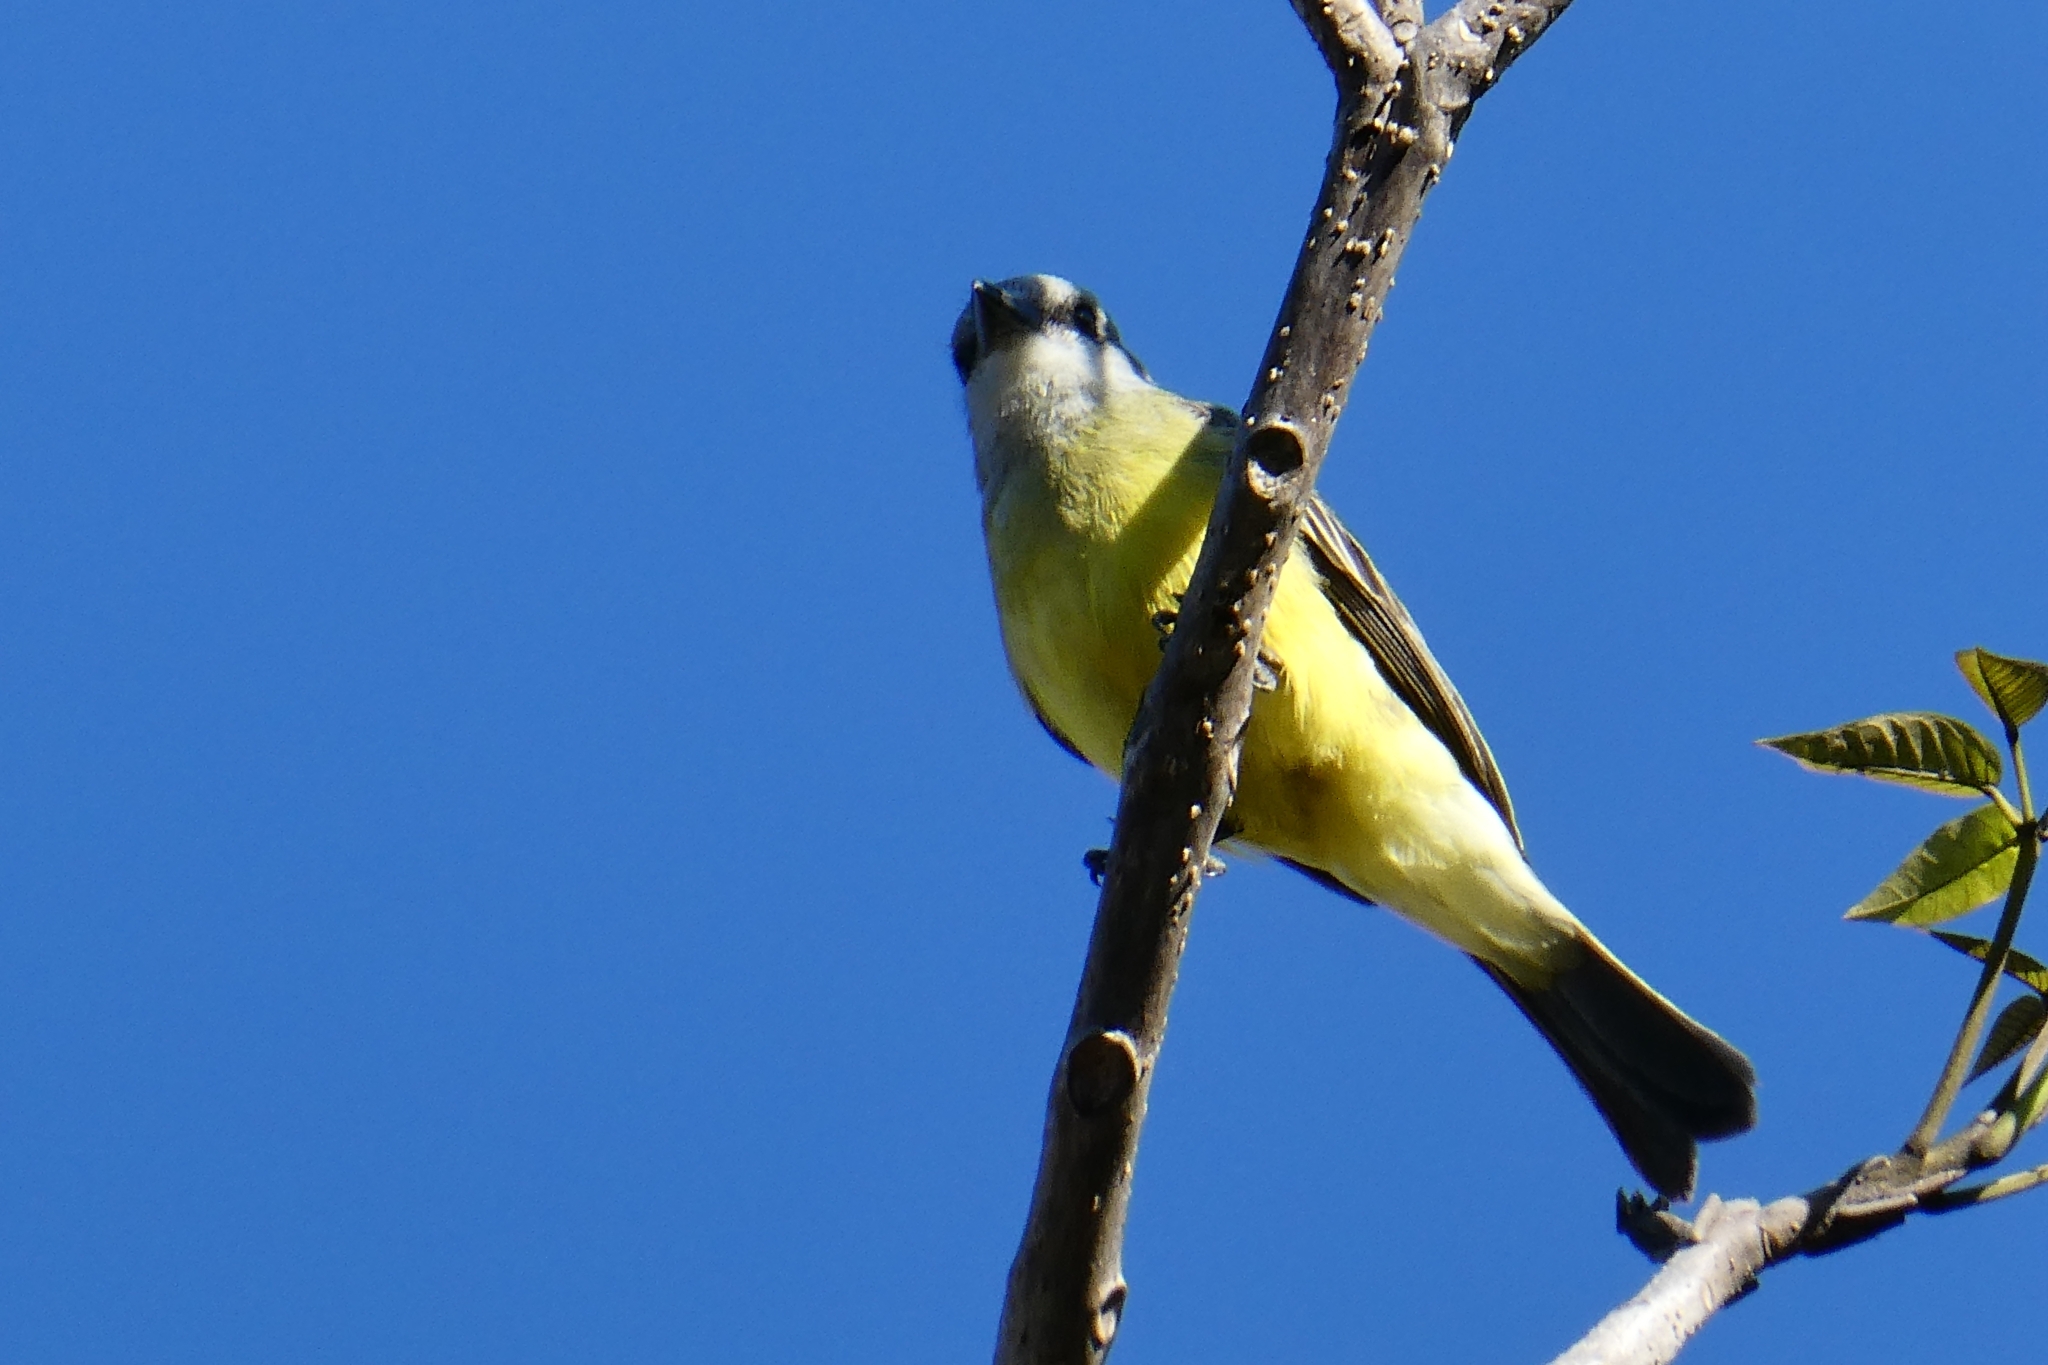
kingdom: Animalia
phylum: Chordata
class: Aves
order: Passeriformes
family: Tyrannidae
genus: Tyrannus
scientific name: Tyrannus melancholicus
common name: Tropical kingbird
